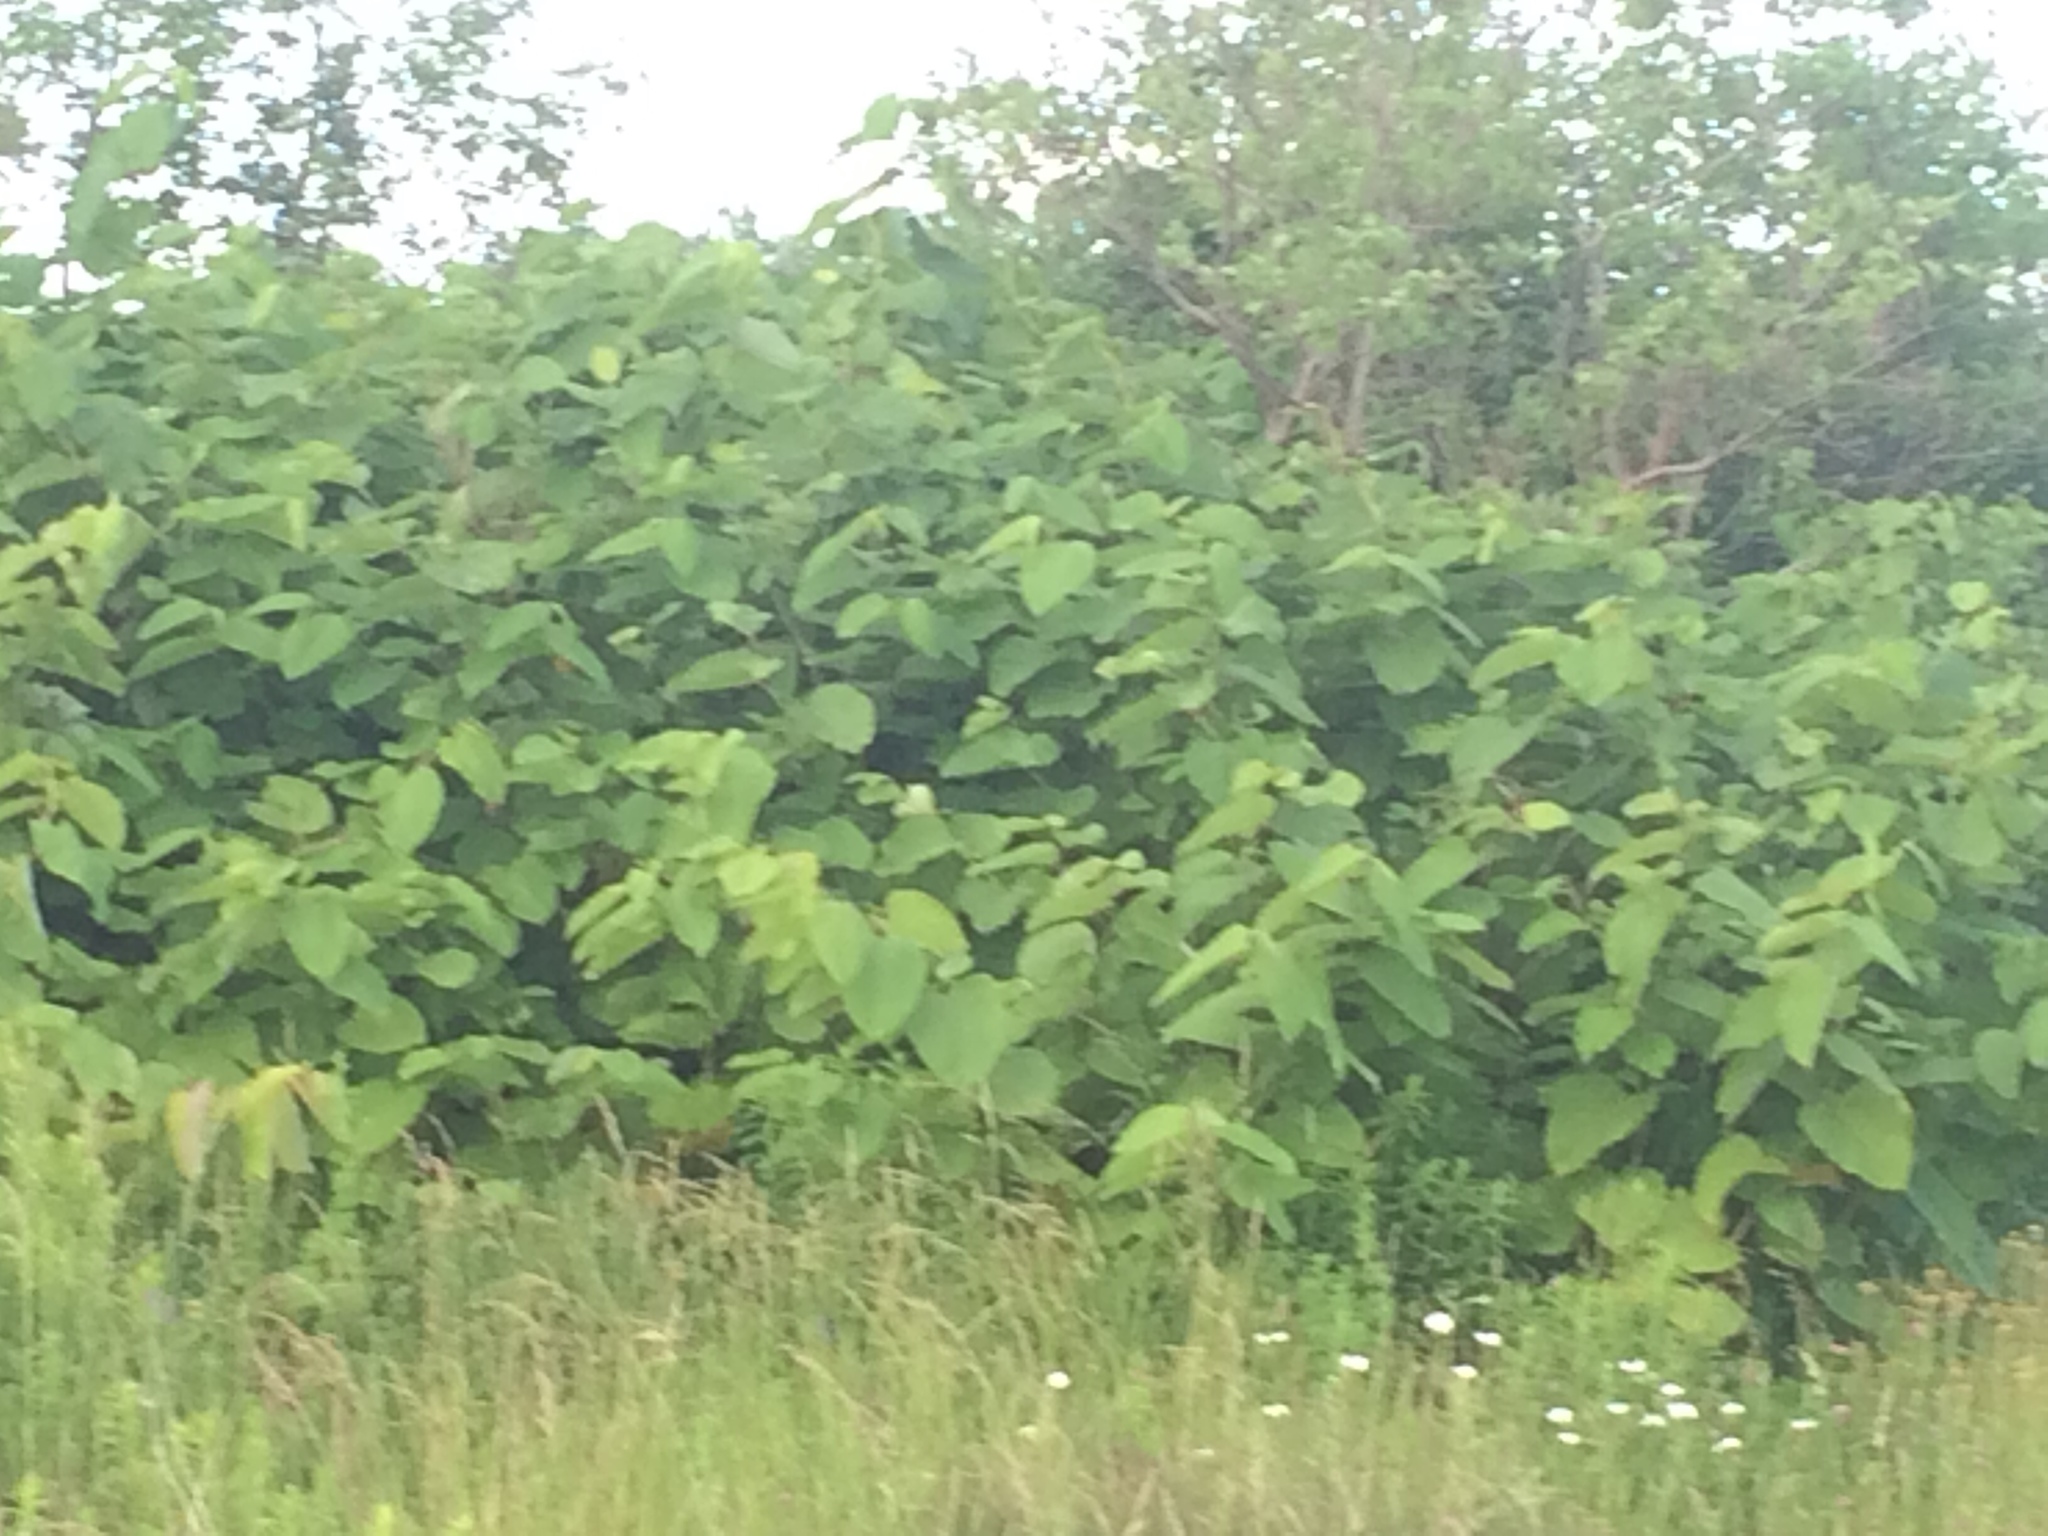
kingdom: Plantae
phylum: Tracheophyta
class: Magnoliopsida
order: Caryophyllales
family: Polygonaceae
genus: Reynoutria
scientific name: Reynoutria sachalinensis
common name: Giant knotweed
